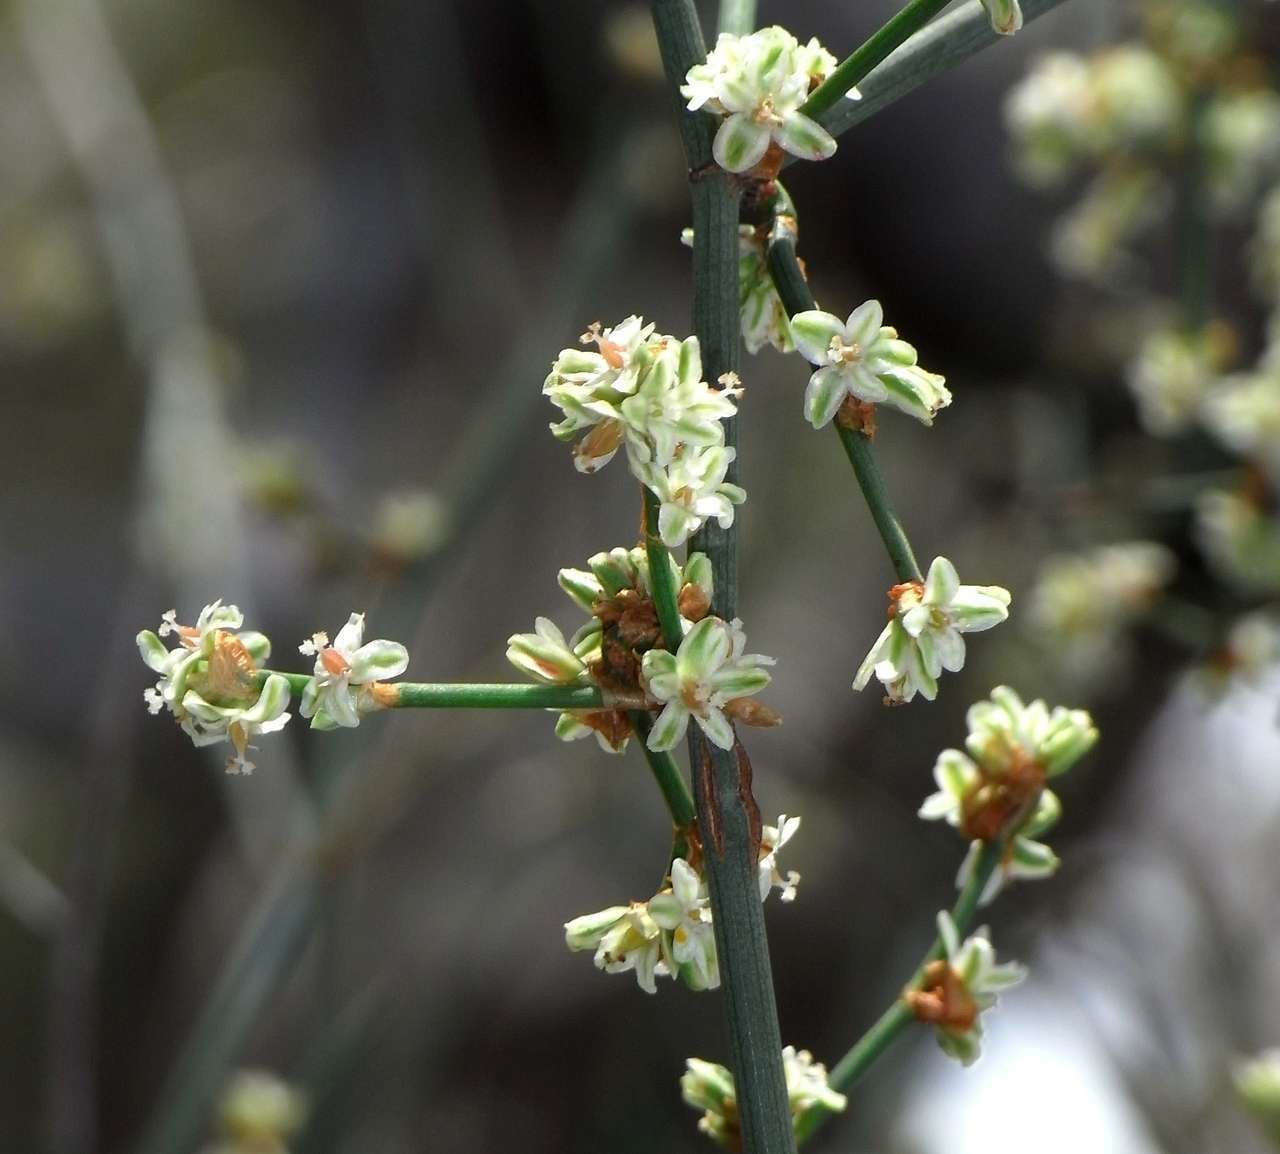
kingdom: Plantae
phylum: Tracheophyta
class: Magnoliopsida
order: Caryophyllales
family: Polygonaceae
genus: Duma
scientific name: Duma florulenta
